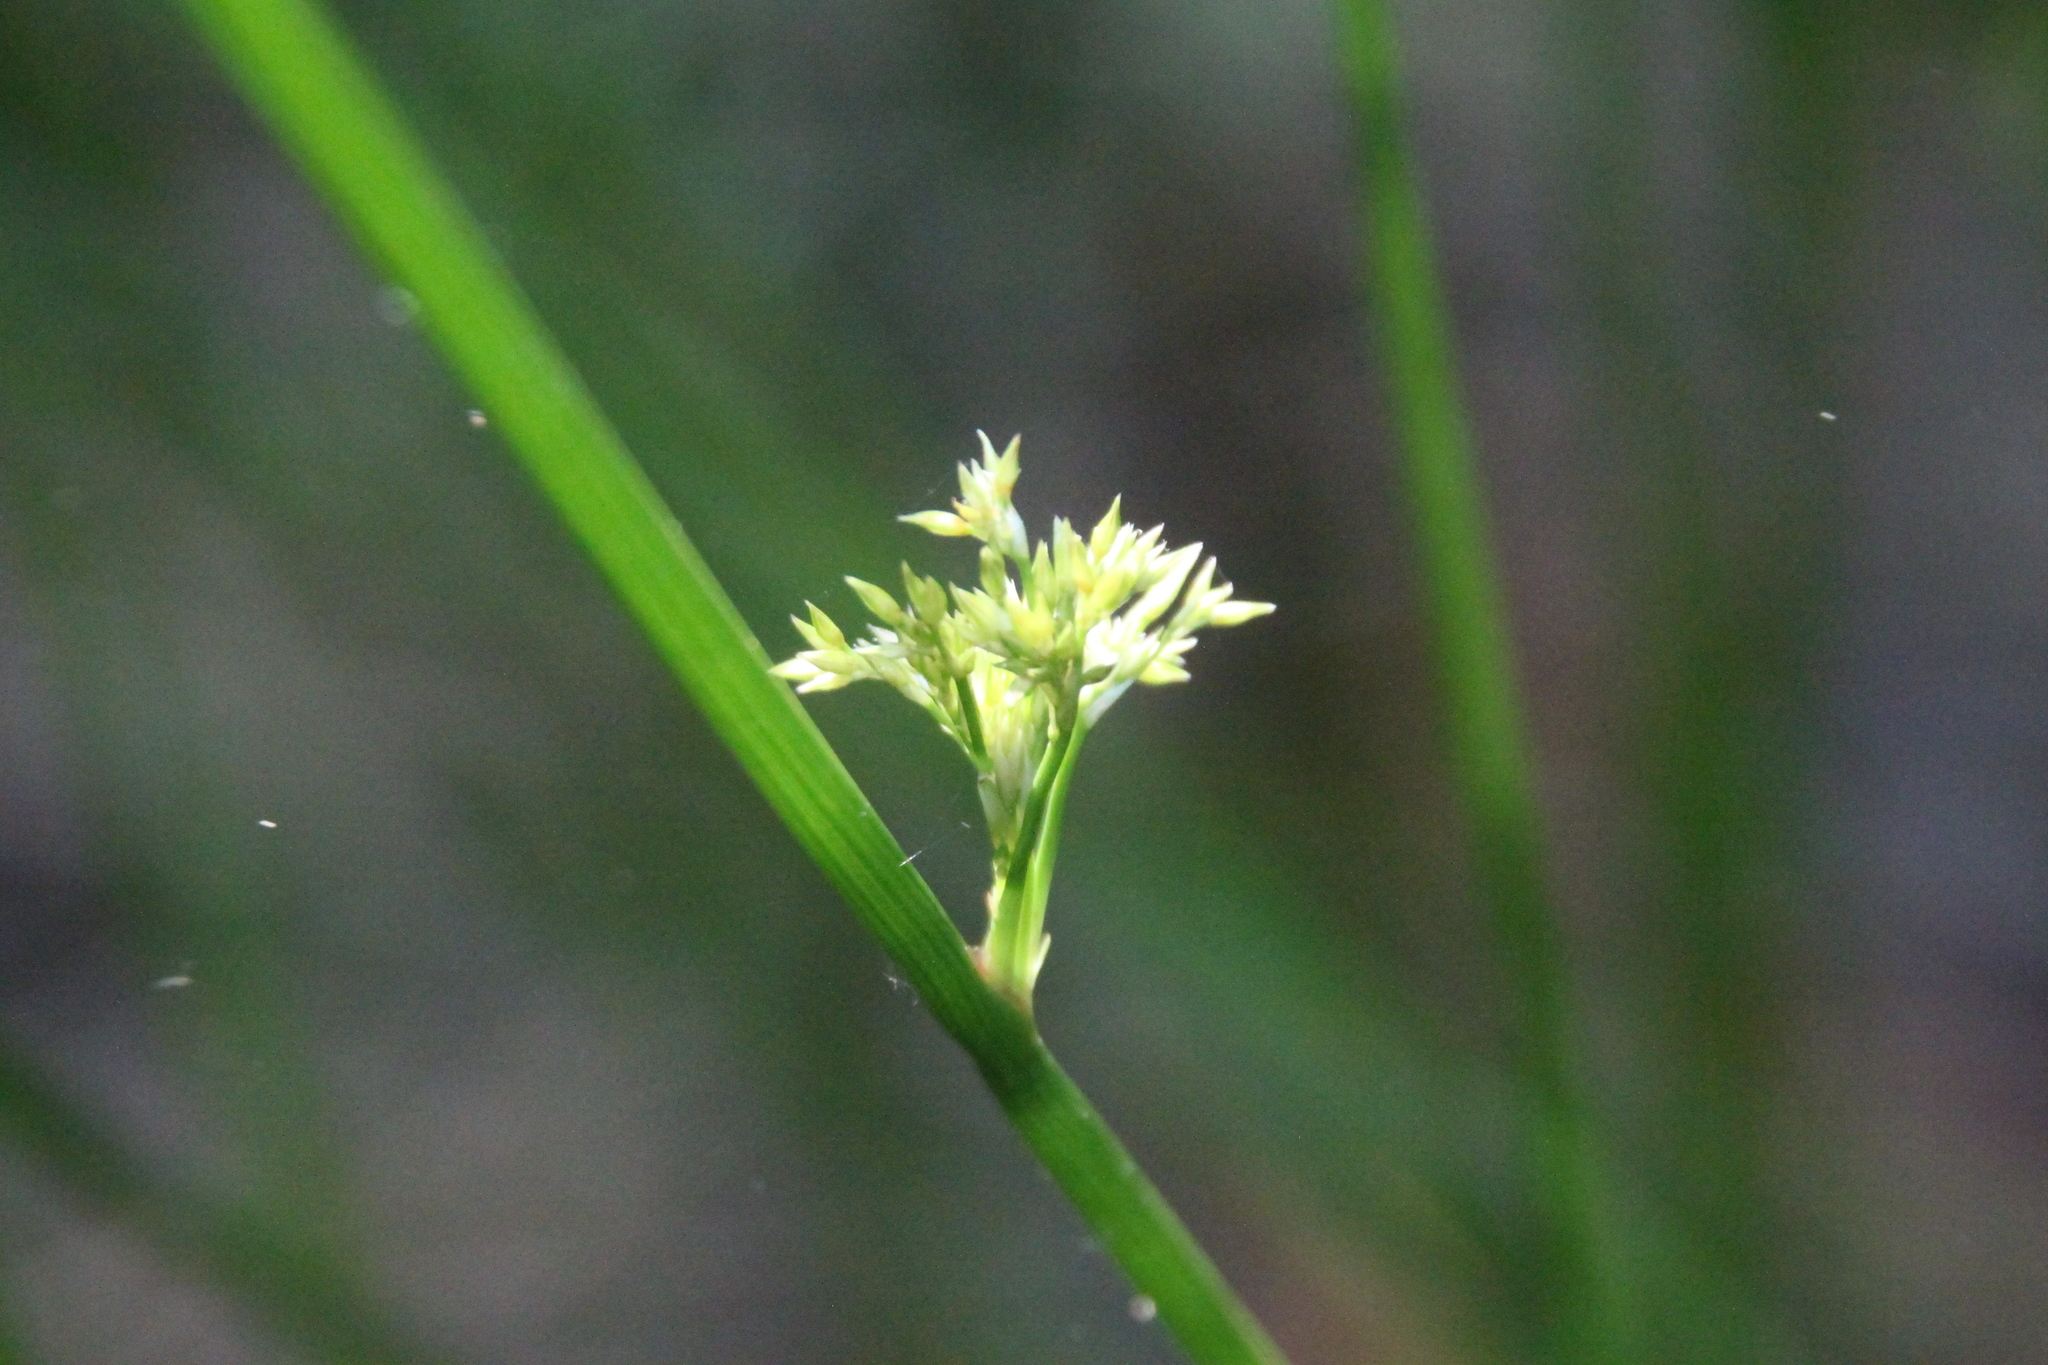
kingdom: Plantae
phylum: Tracheophyta
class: Liliopsida
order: Poales
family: Juncaceae
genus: Juncus
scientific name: Juncus effusus
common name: Soft rush
